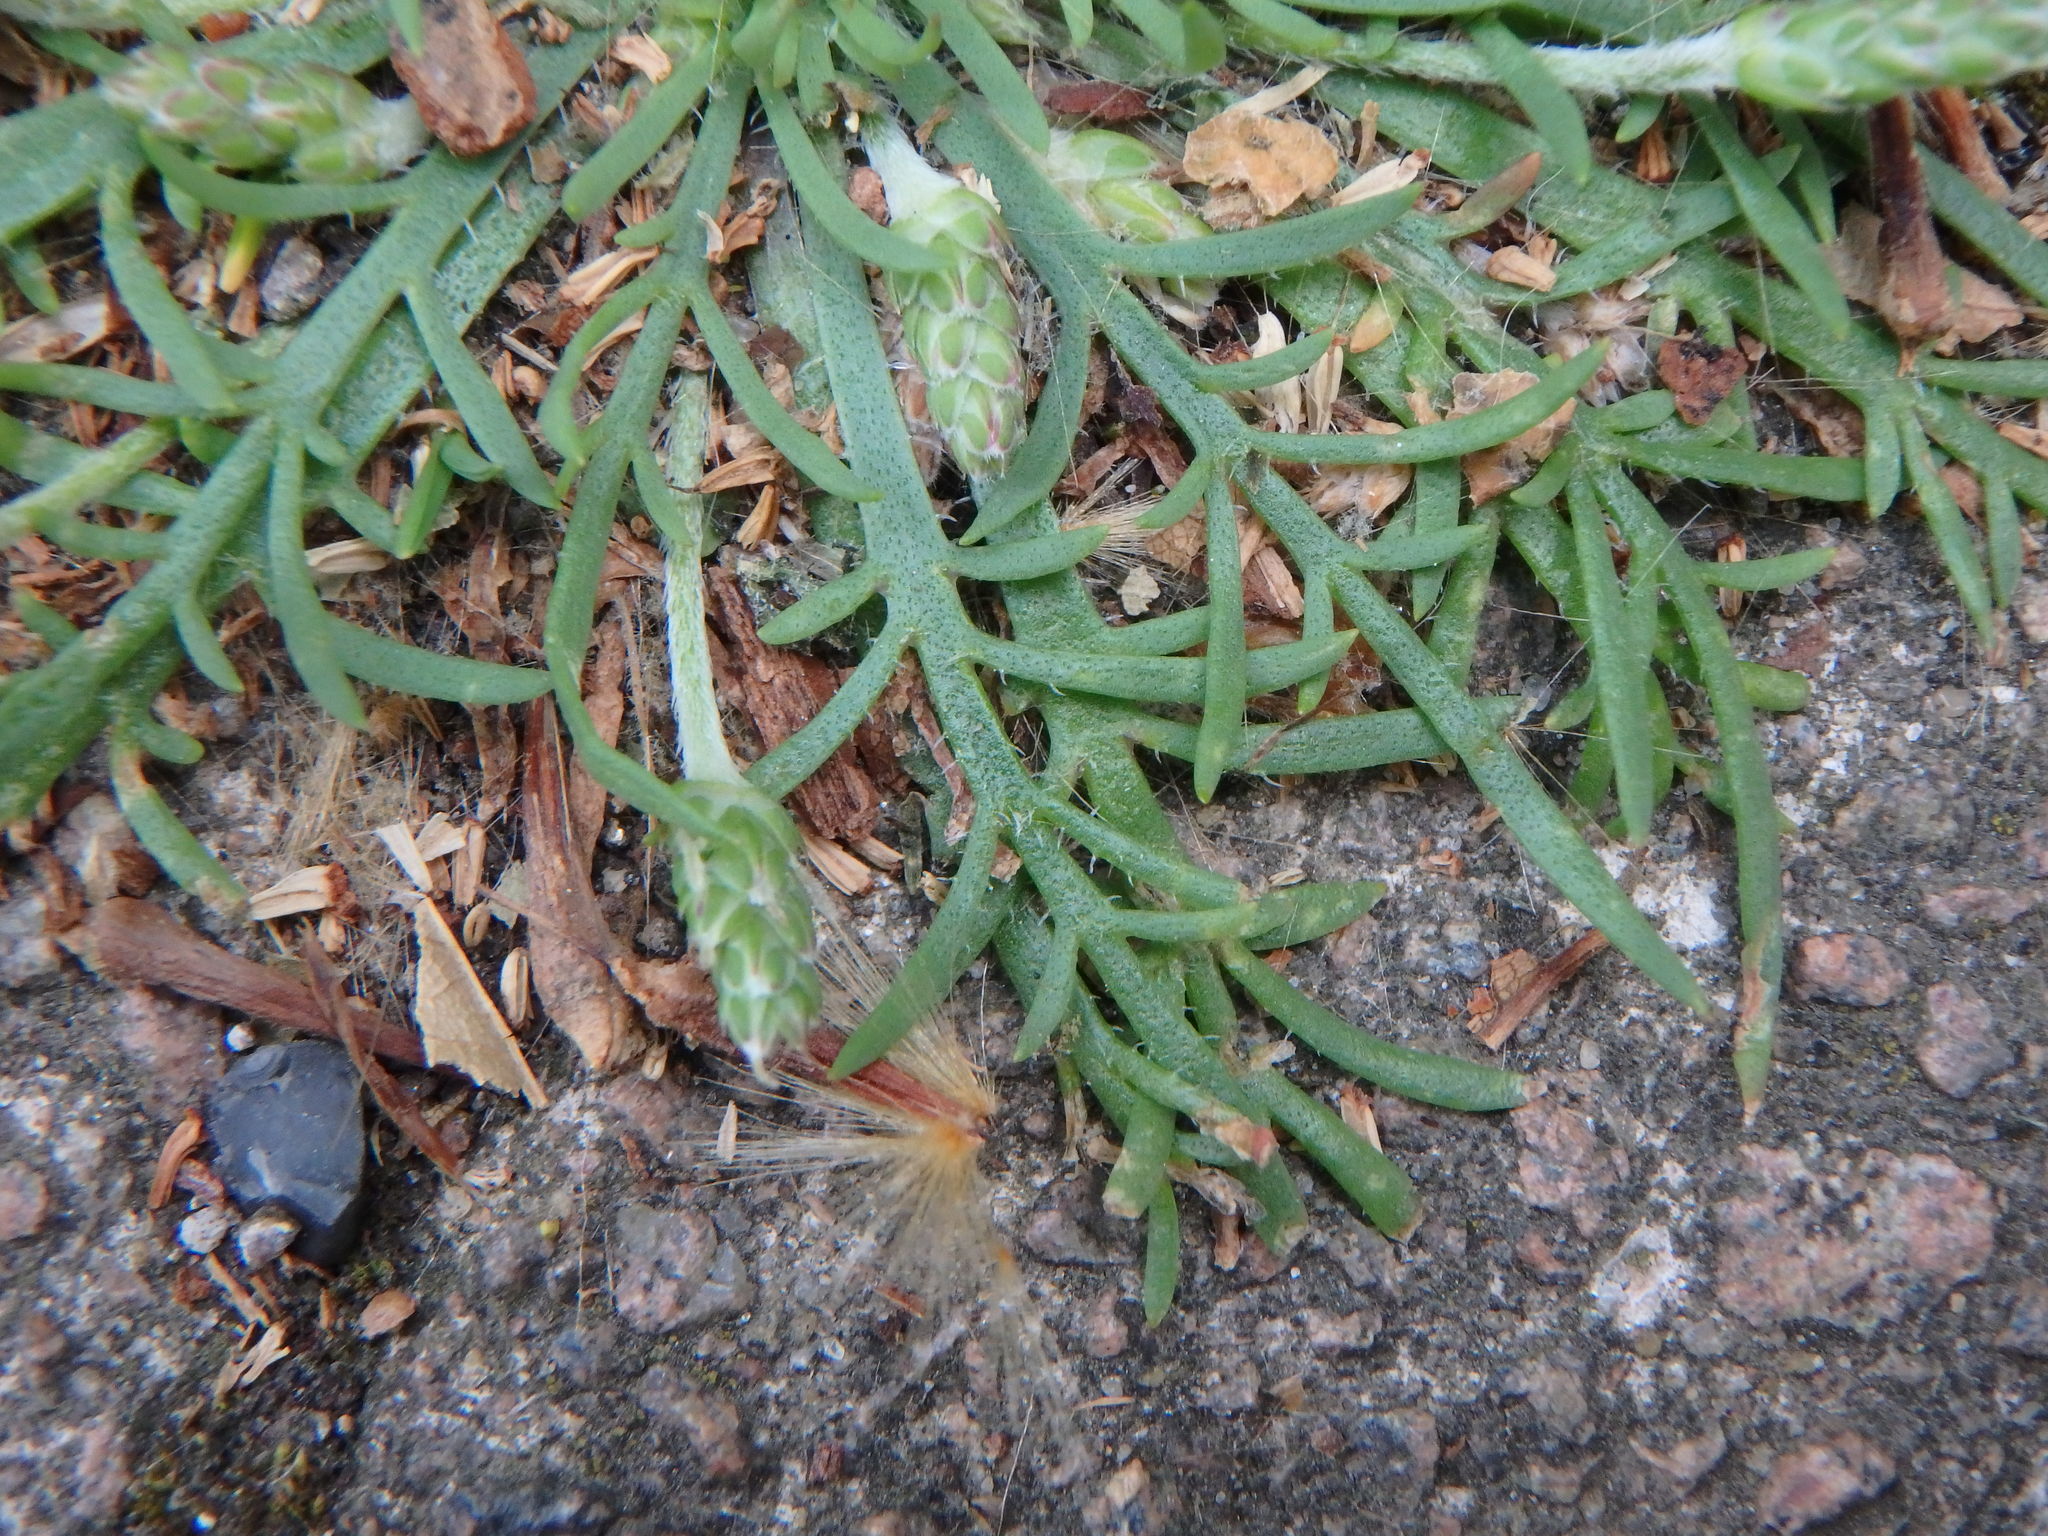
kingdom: Plantae
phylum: Tracheophyta
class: Magnoliopsida
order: Lamiales
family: Plantaginaceae
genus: Plantago
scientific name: Plantago coronopus
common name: Buck's-horn plantain
